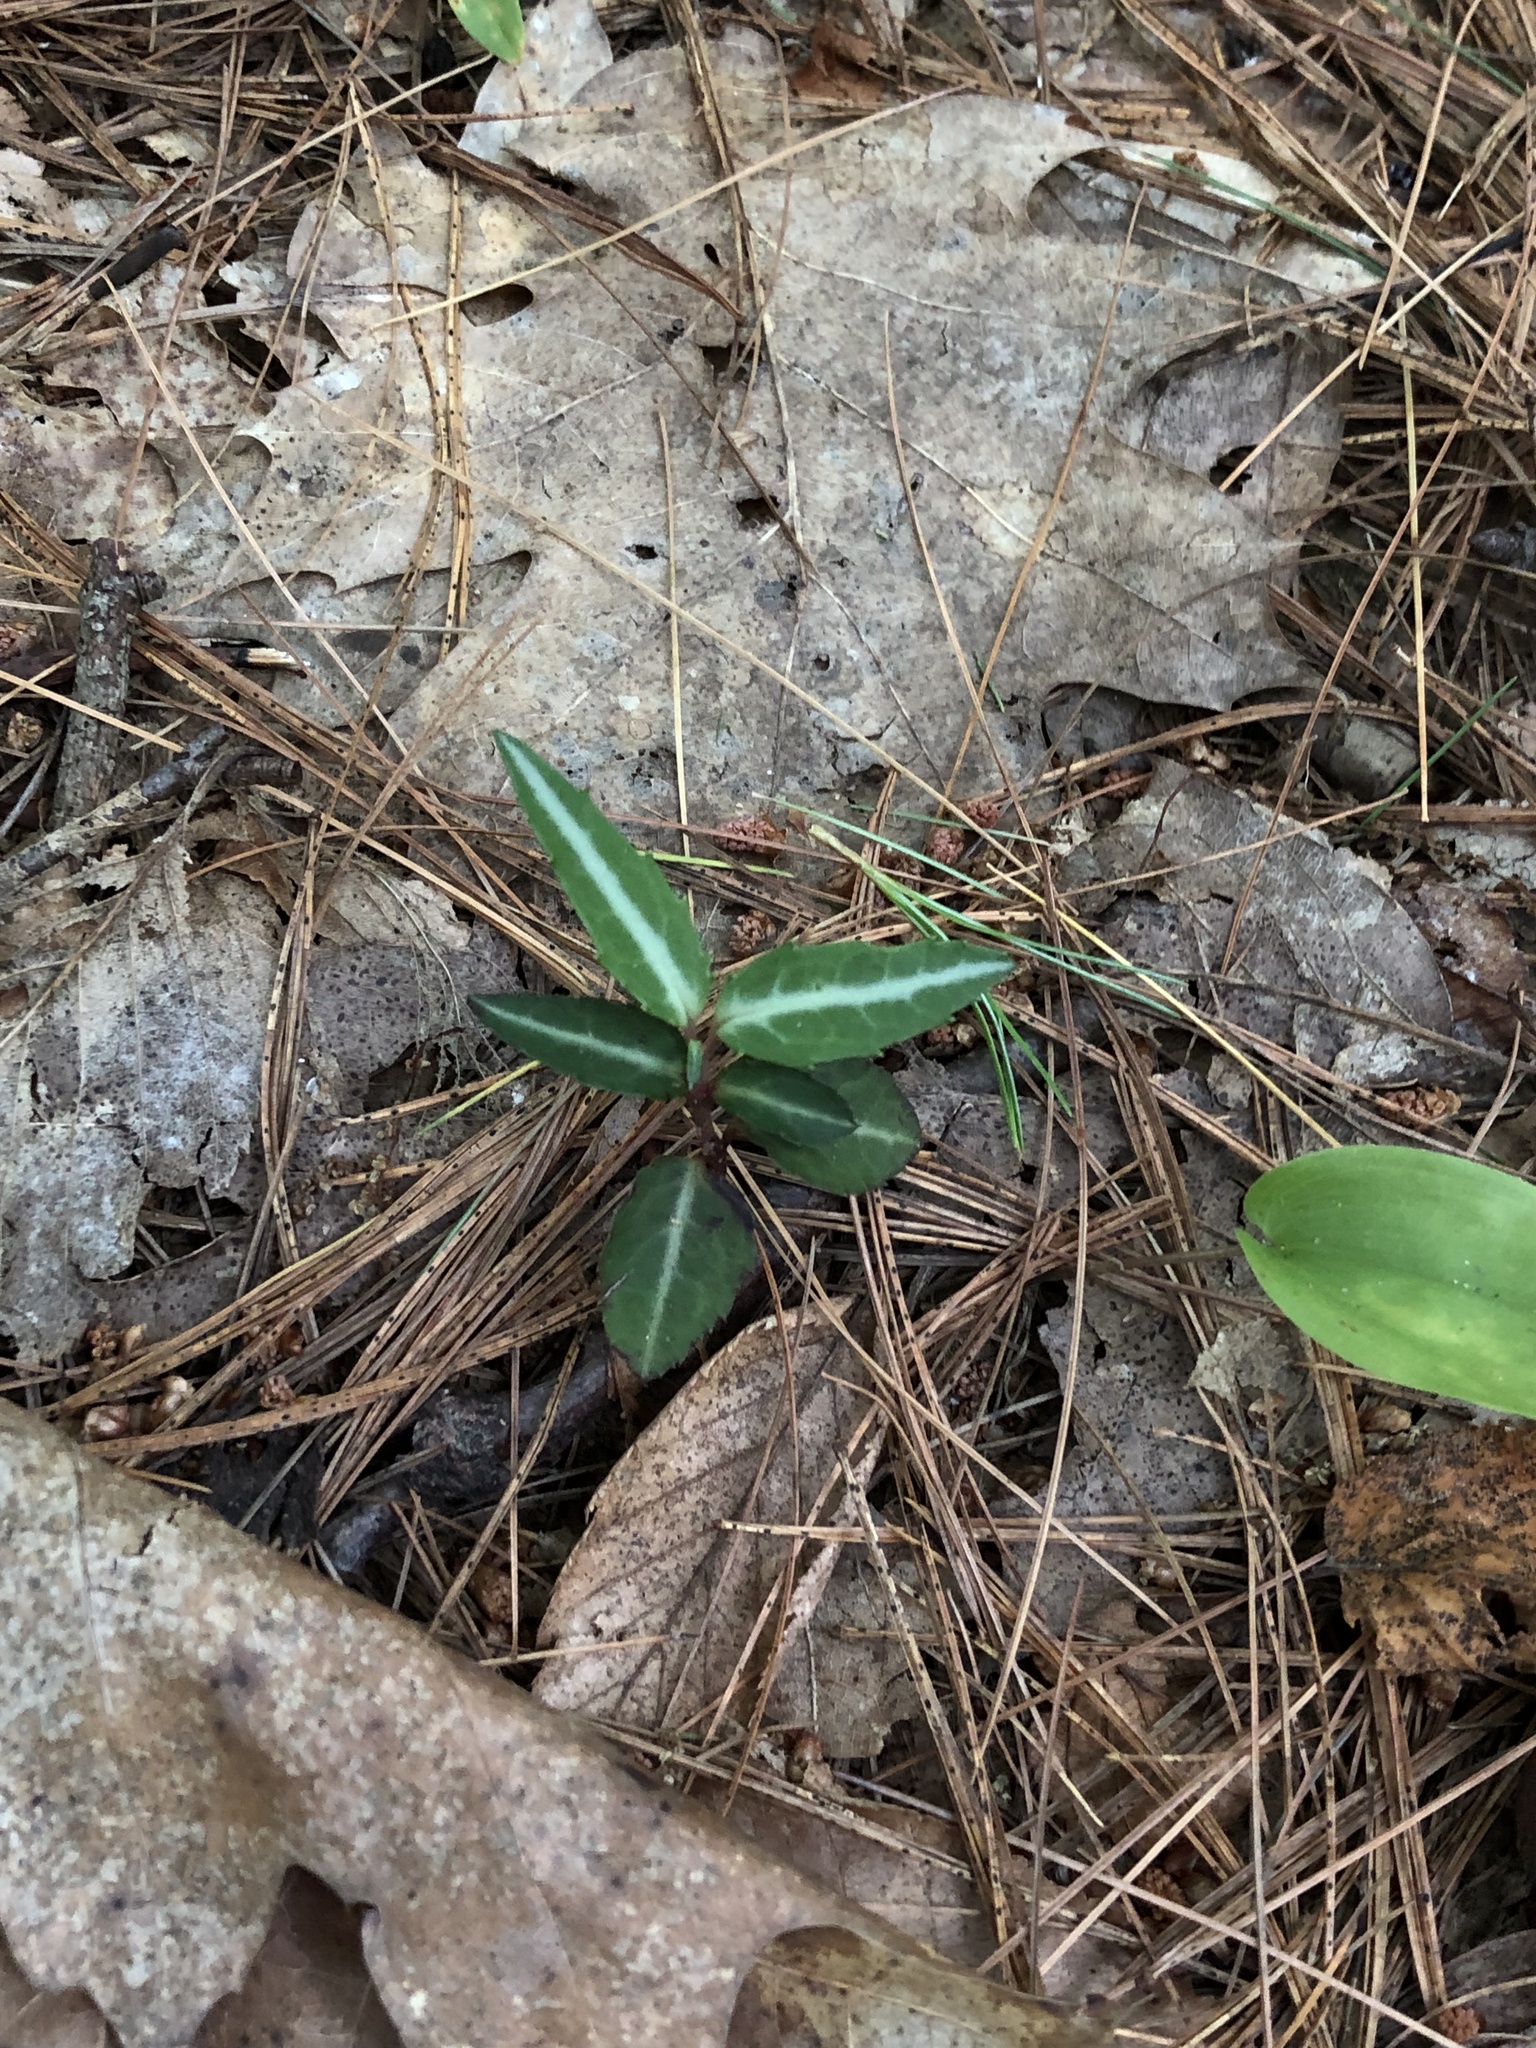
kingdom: Plantae
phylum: Tracheophyta
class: Magnoliopsida
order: Ericales
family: Ericaceae
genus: Chimaphila
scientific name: Chimaphila maculata
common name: Spotted pipsissewa
